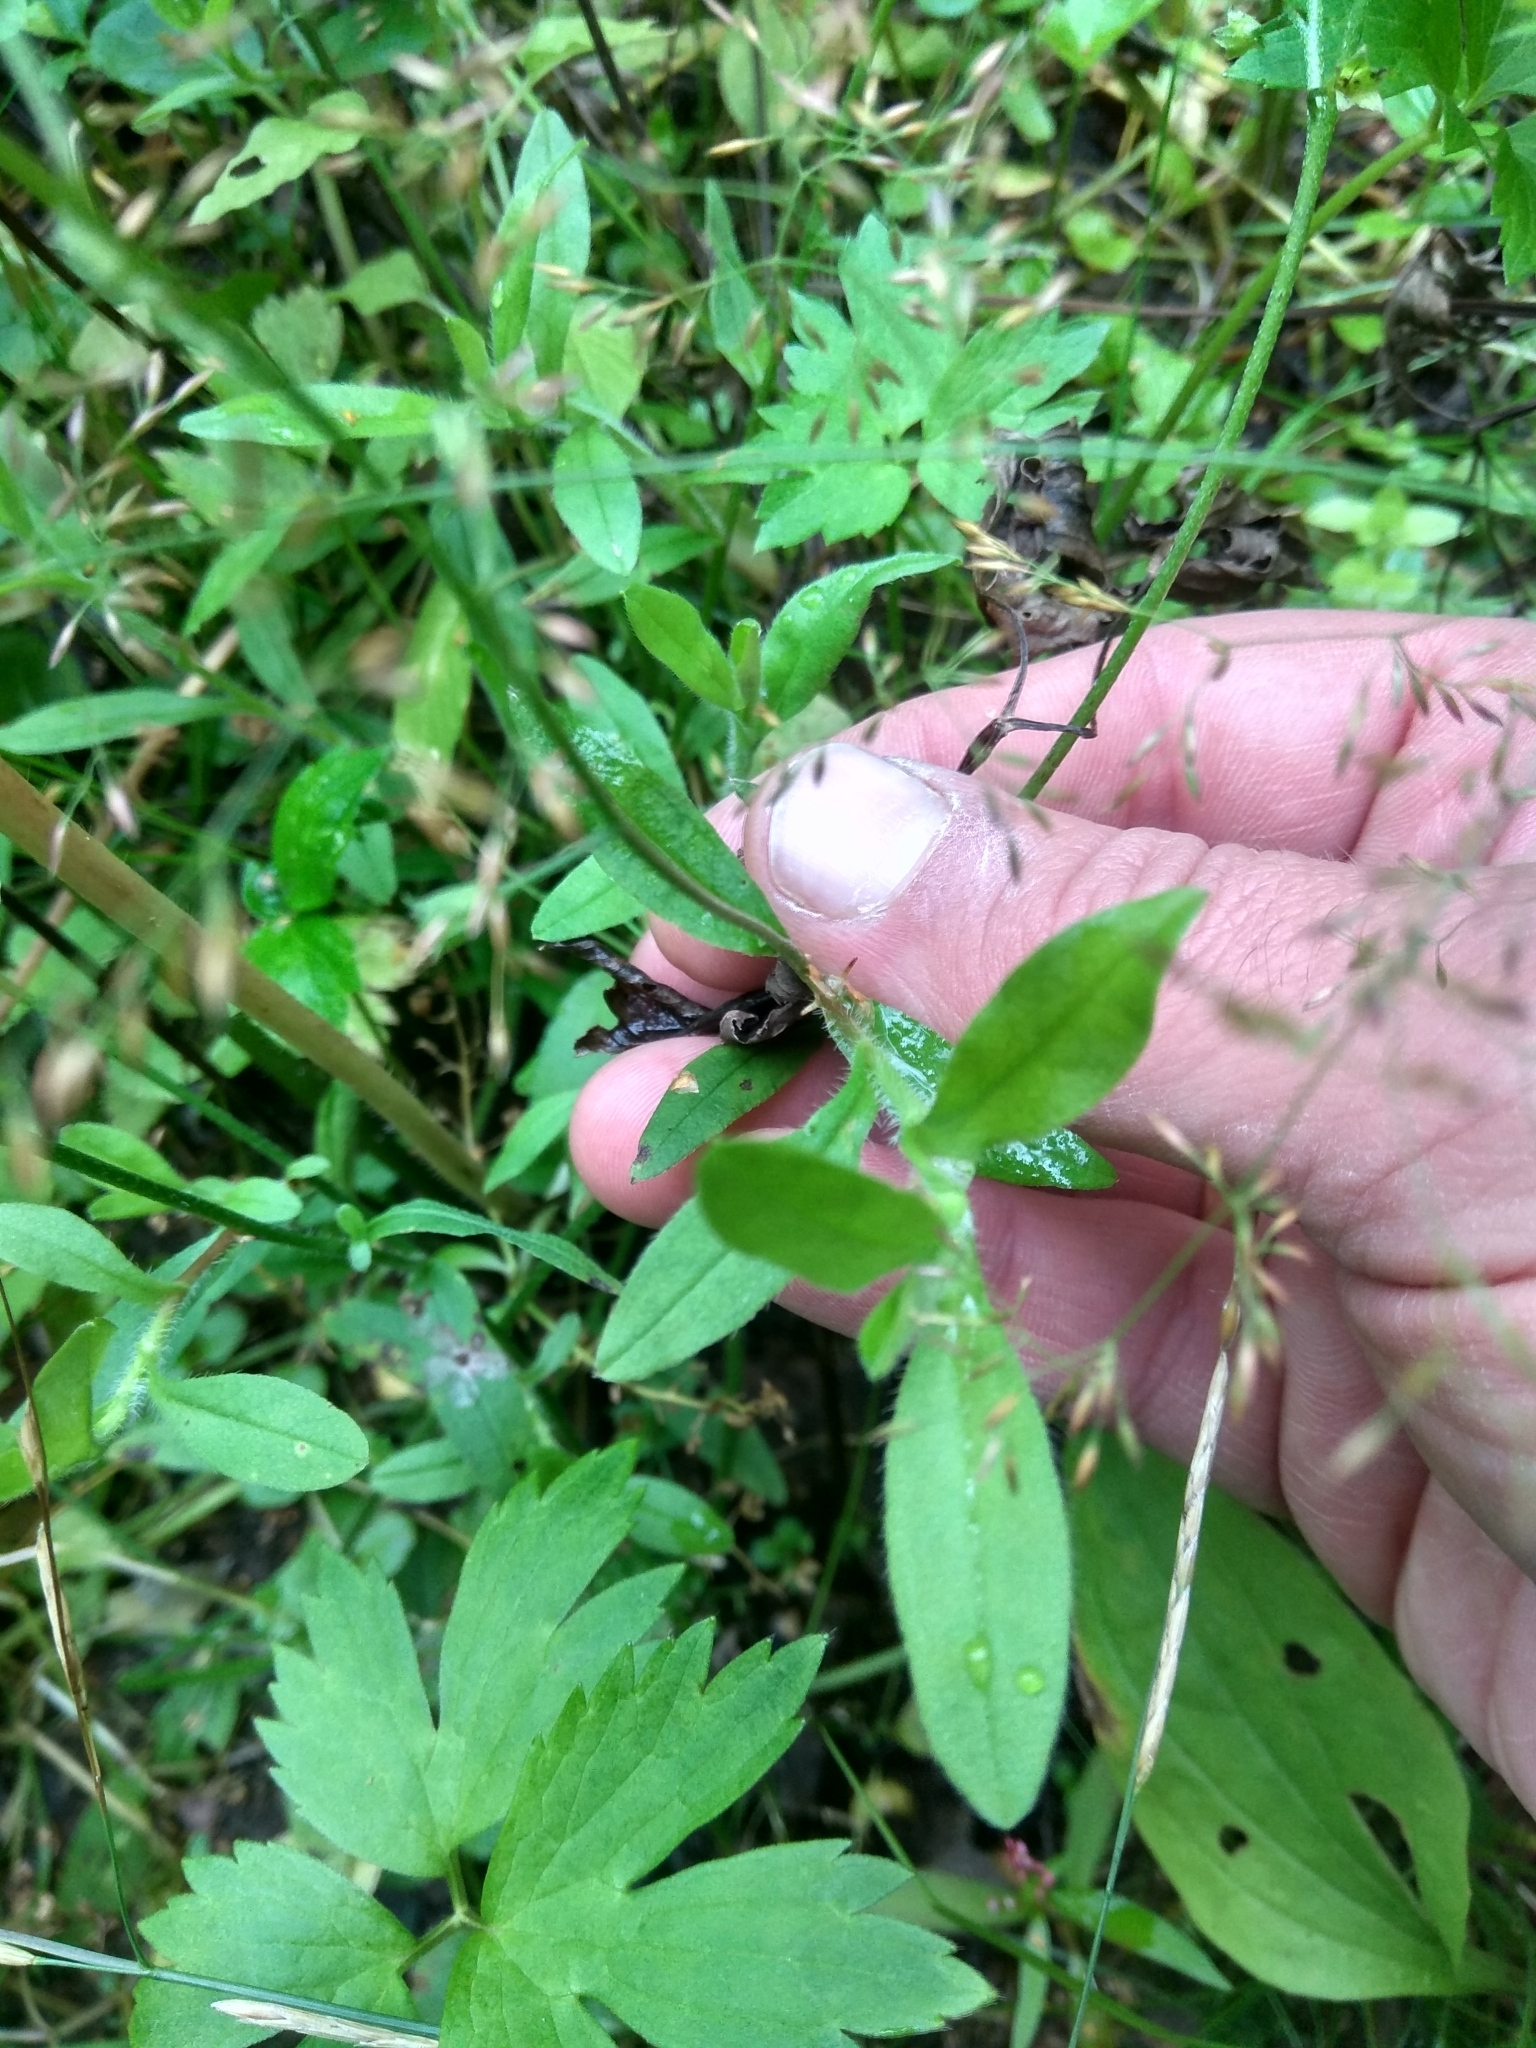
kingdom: Plantae
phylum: Tracheophyta
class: Magnoliopsida
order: Boraginales
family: Boraginaceae
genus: Myosotis
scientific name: Myosotis scorpioides
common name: Water forget-me-not
